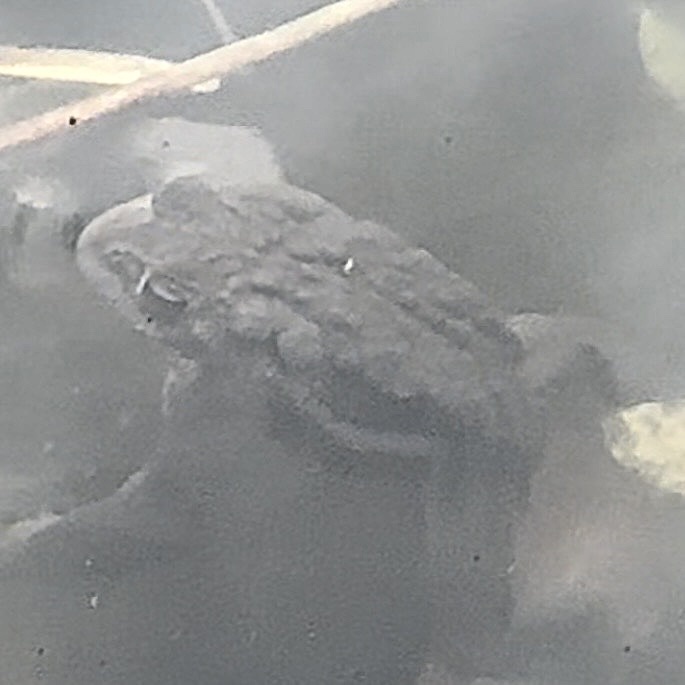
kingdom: Animalia
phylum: Chordata
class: Amphibia
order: Anura
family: Bufonidae
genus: Bufo
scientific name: Bufo bufo
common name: Common toad
